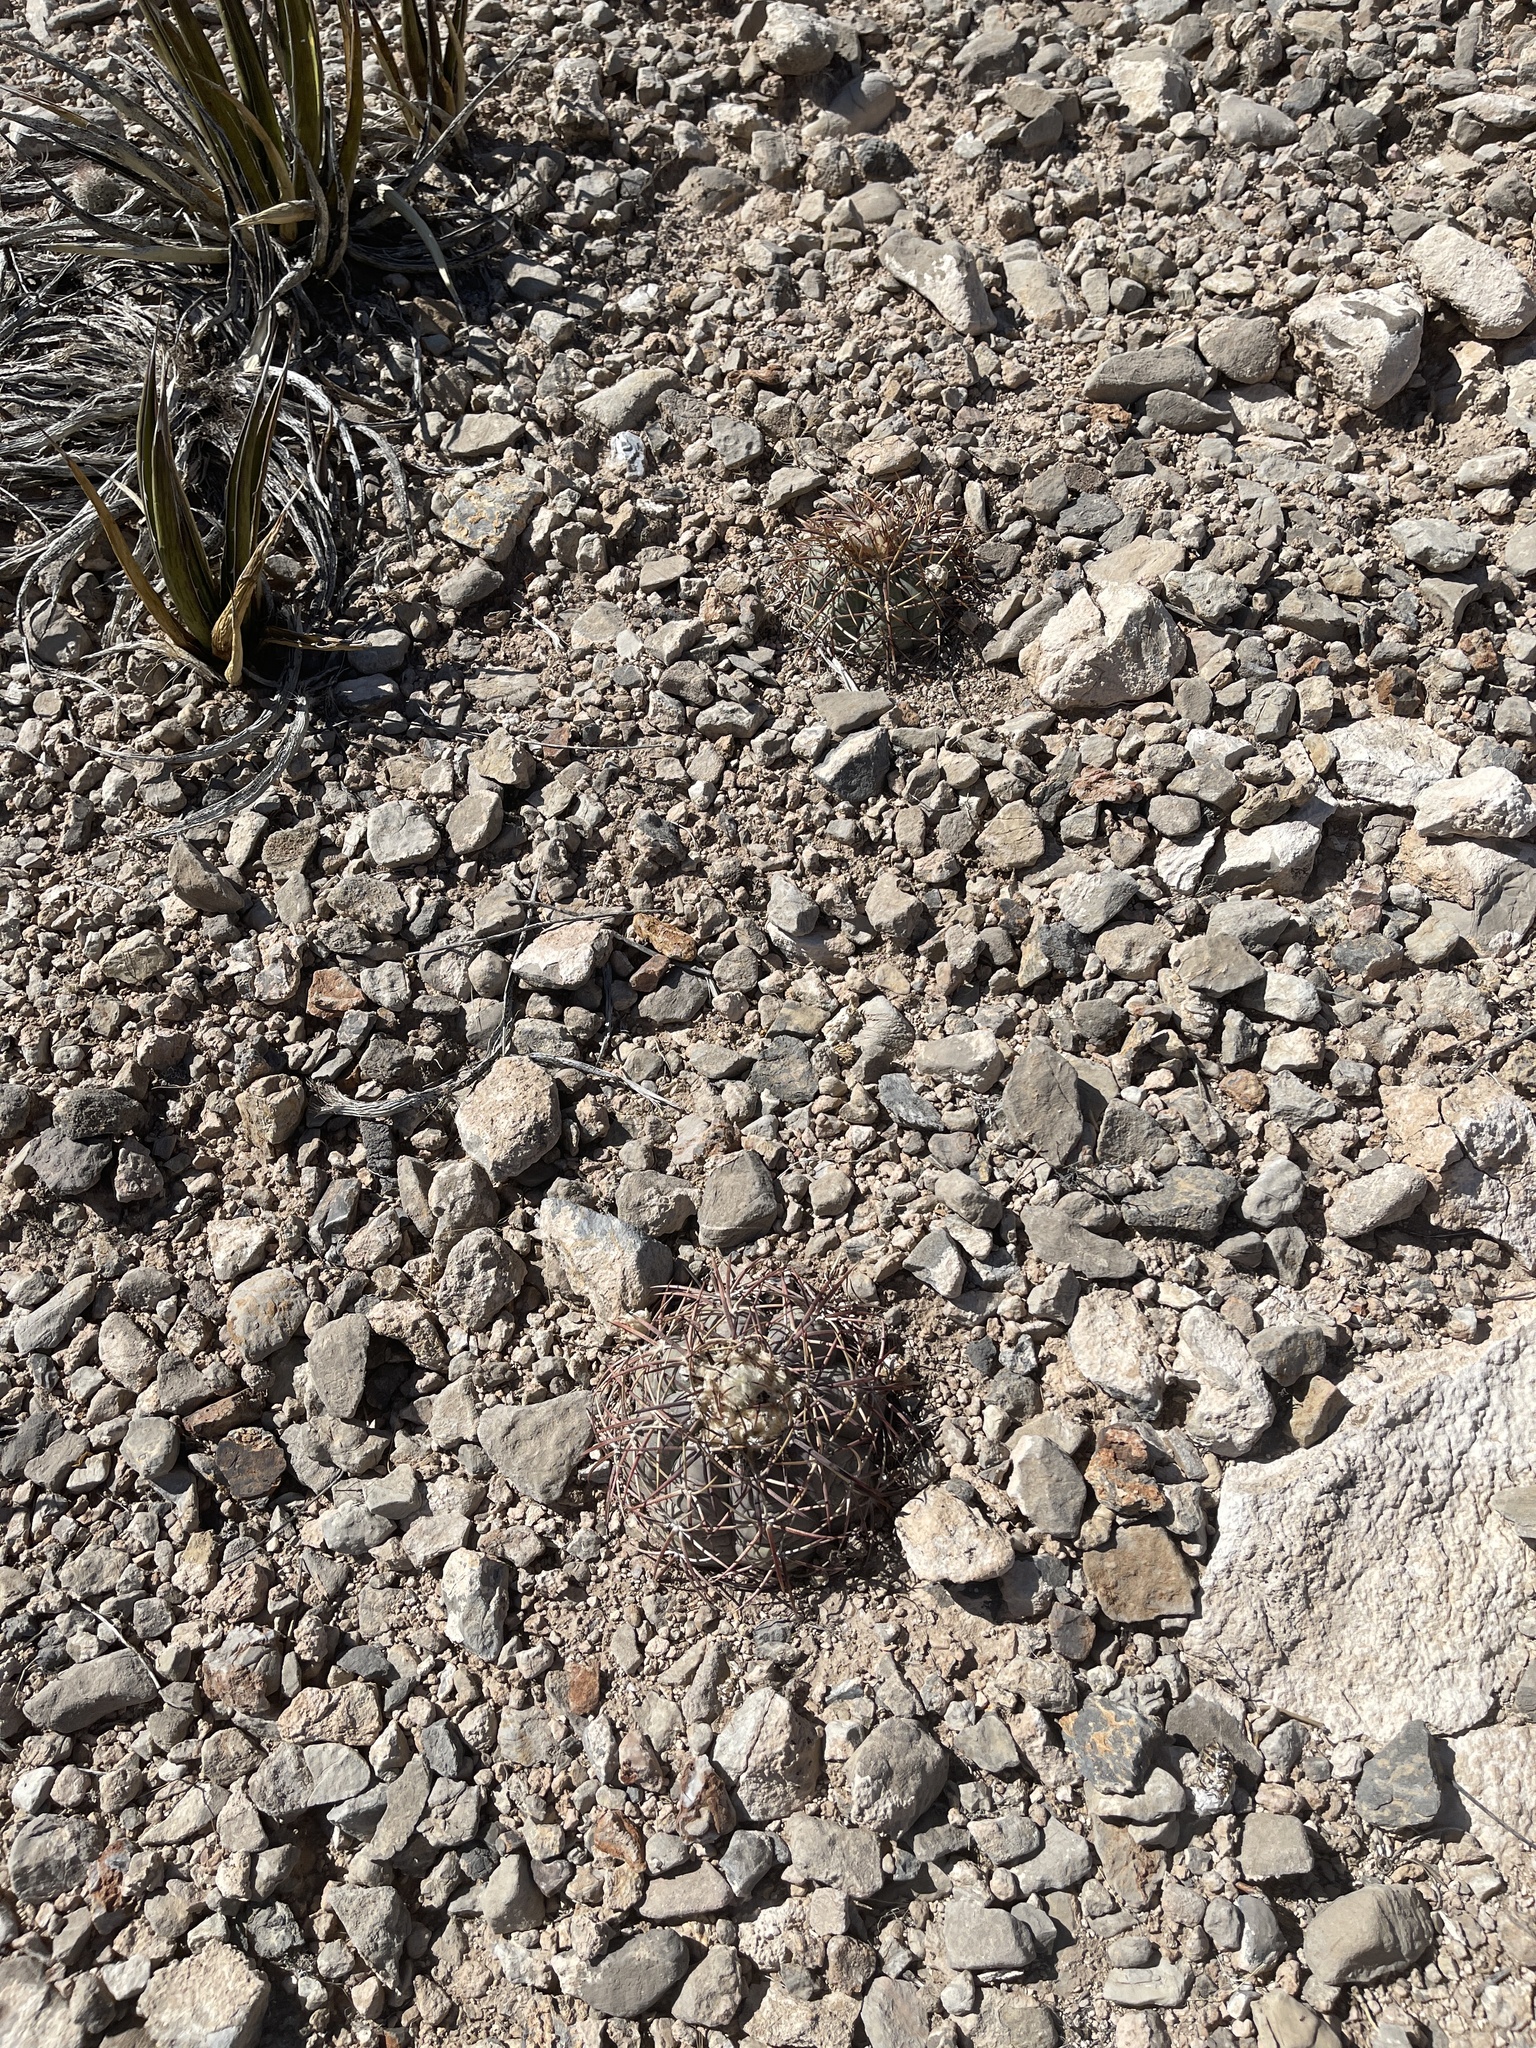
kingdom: Plantae
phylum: Tracheophyta
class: Magnoliopsida
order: Caryophyllales
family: Cactaceae
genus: Echinocactus
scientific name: Echinocactus horizonthalonius
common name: Devilshead
